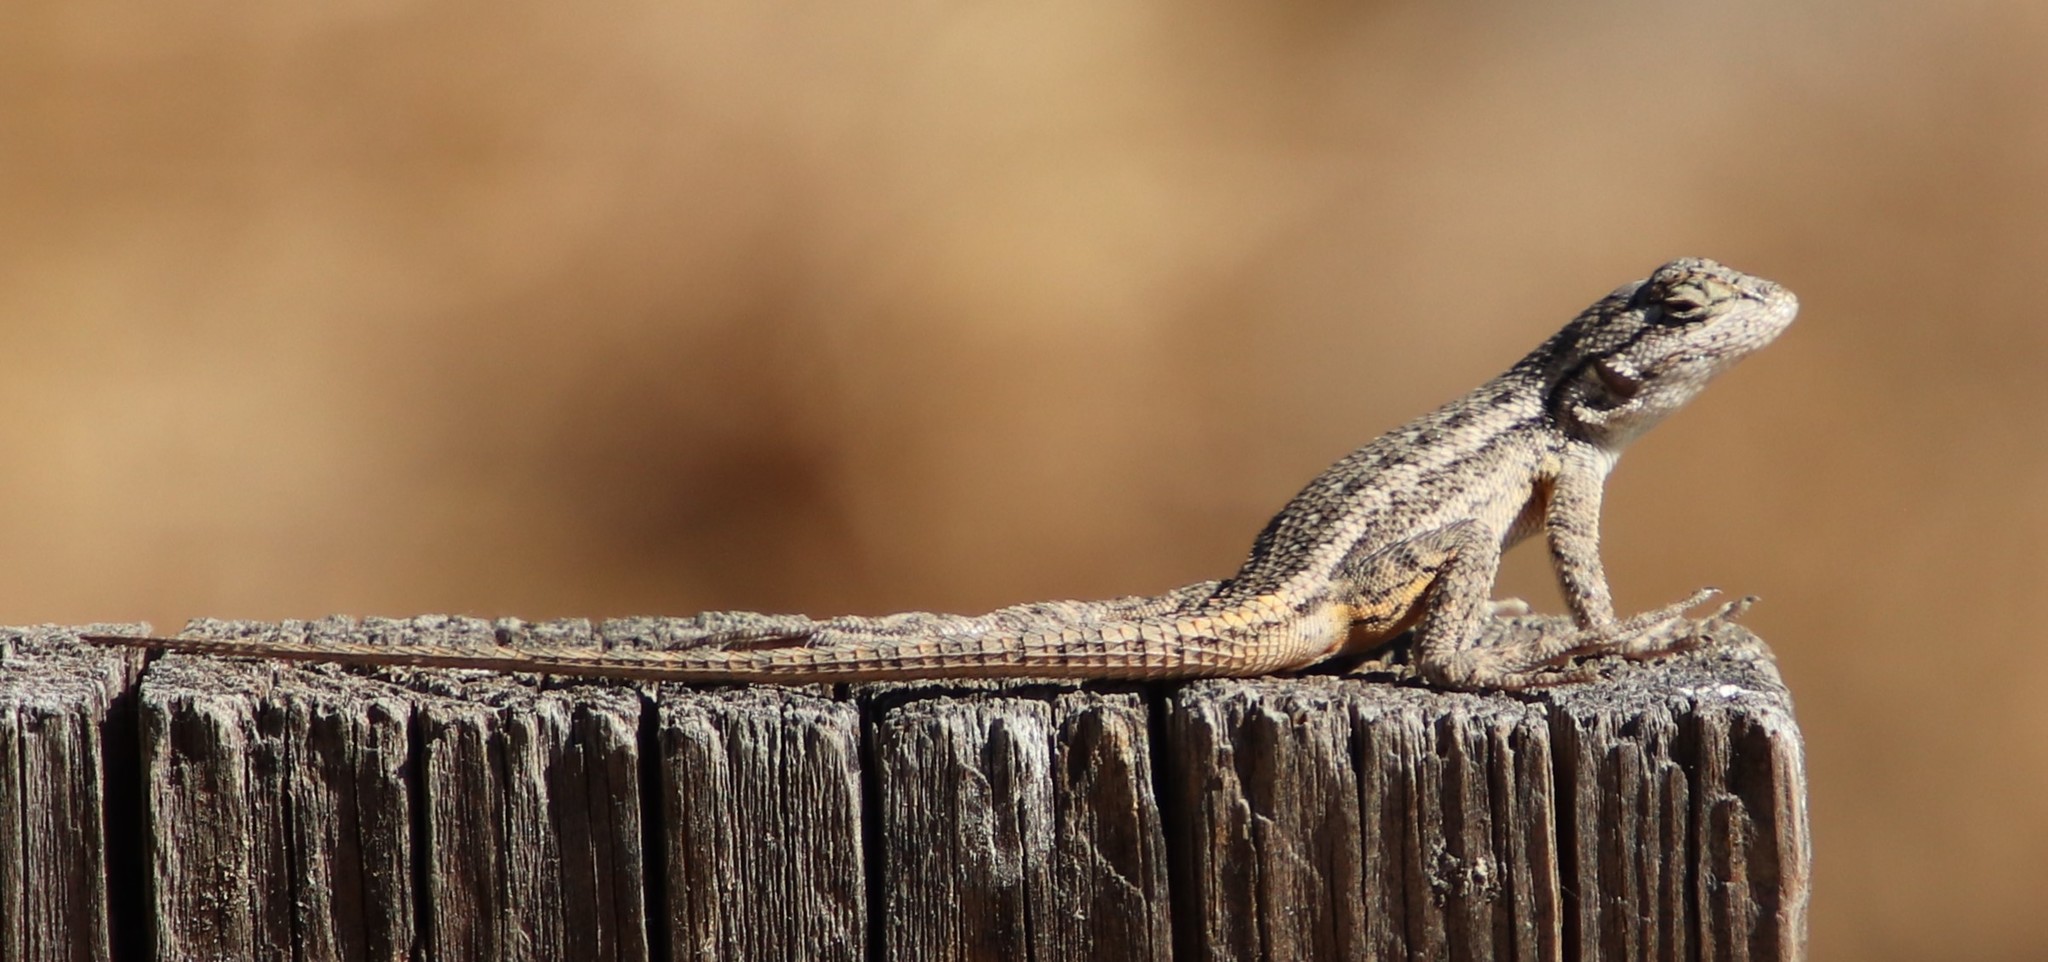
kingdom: Animalia
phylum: Chordata
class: Squamata
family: Phrynosomatidae
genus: Sceloporus
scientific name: Sceloporus occidentalis
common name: Western fence lizard
